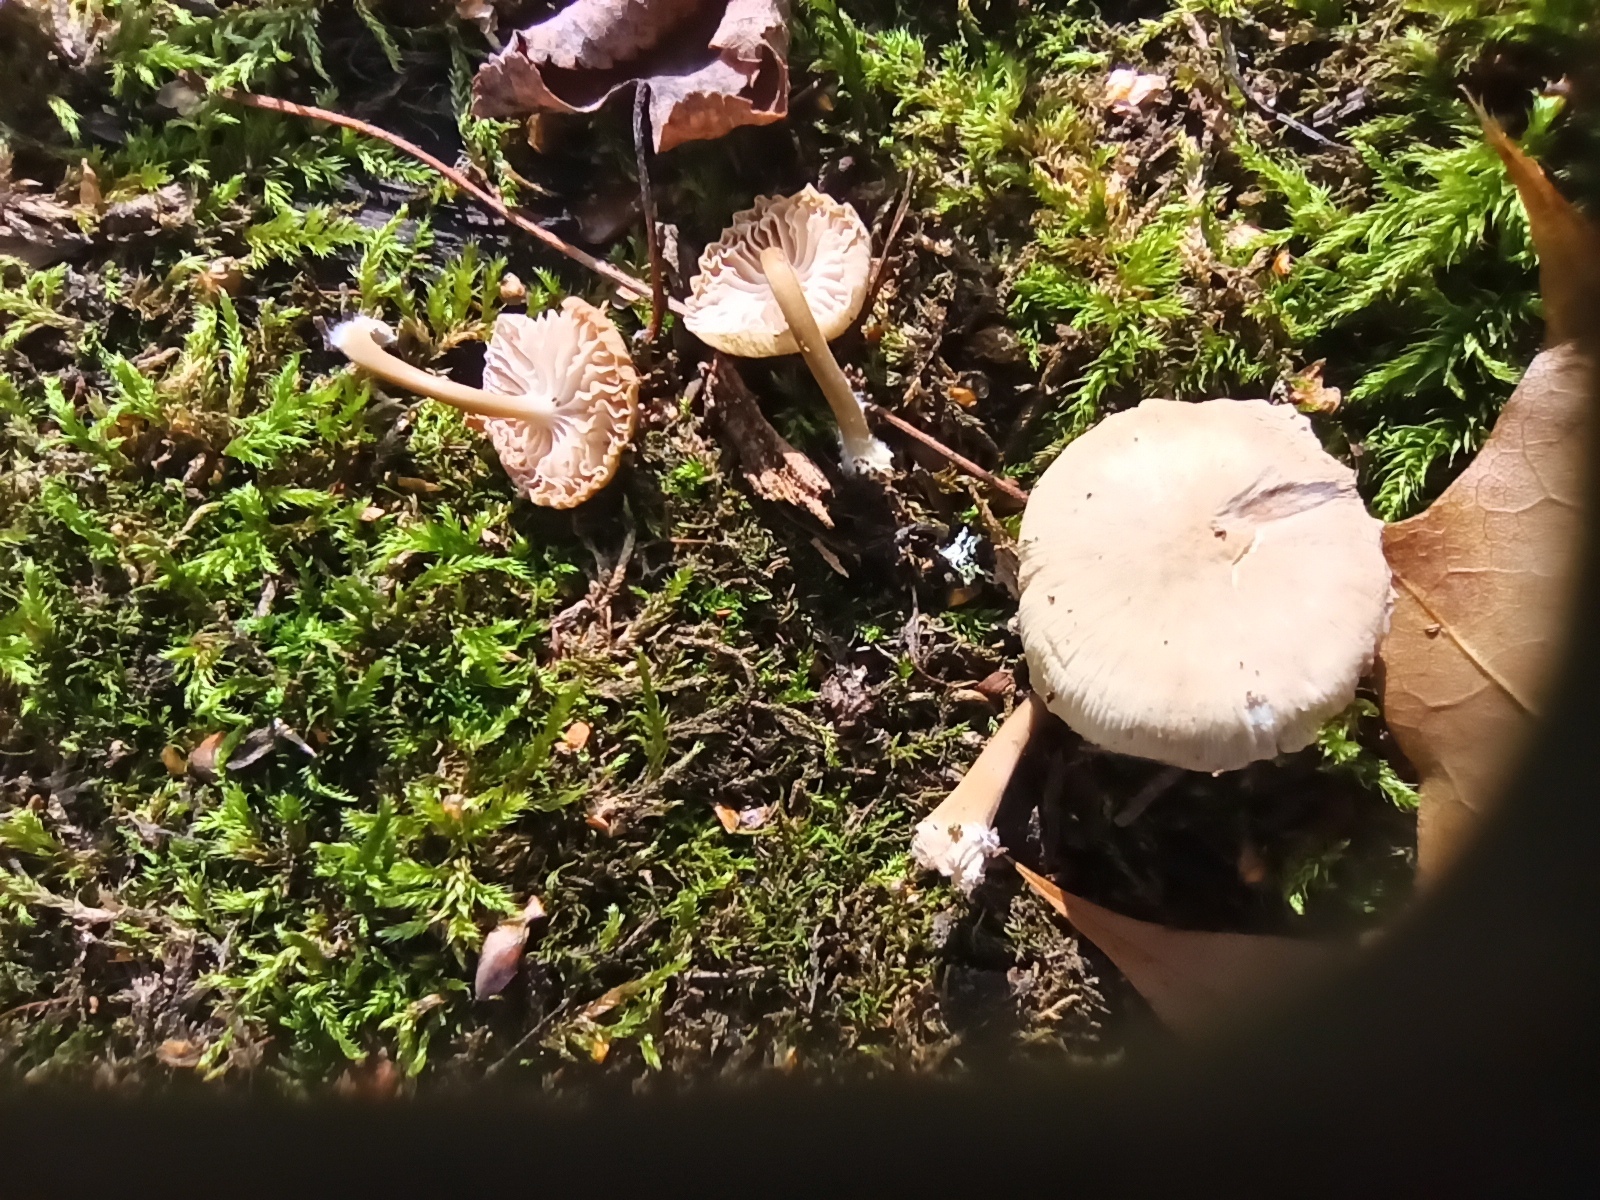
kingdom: Fungi
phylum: Basidiomycota
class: Agaricomycetes
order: Agaricales
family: Mycenaceae
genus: Mycena
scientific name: Mycena galericulata
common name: Bonnet mycena
